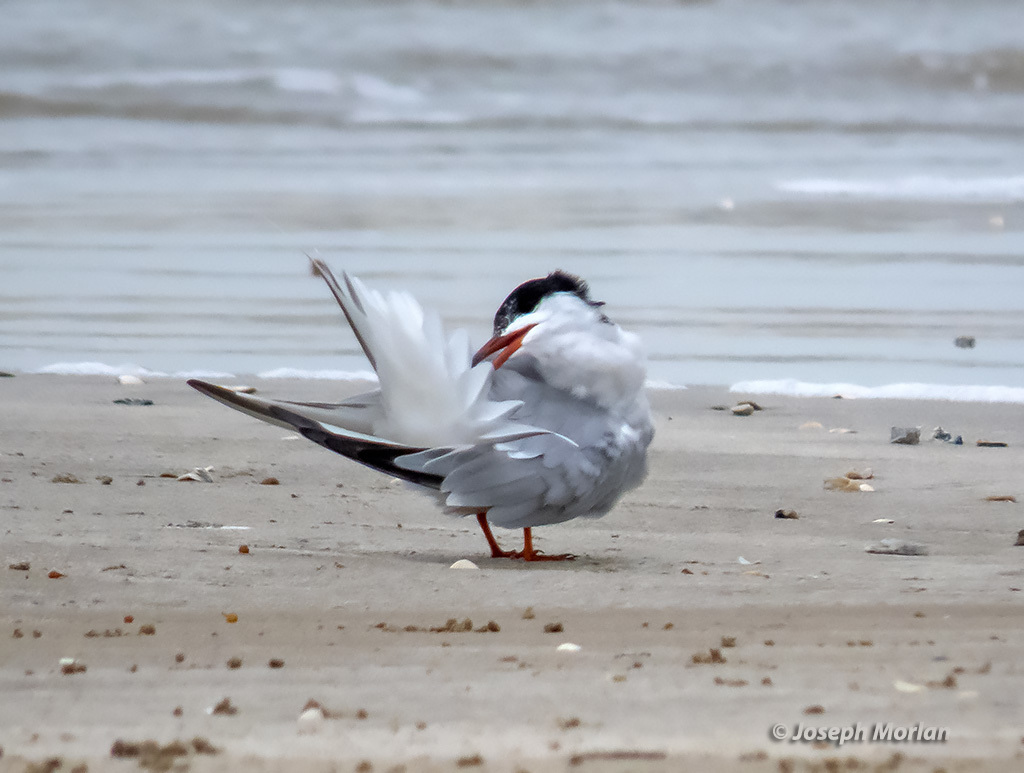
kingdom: Animalia
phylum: Chordata
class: Aves
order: Charadriiformes
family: Laridae
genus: Sterna
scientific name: Sterna hirundo
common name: Common tern
